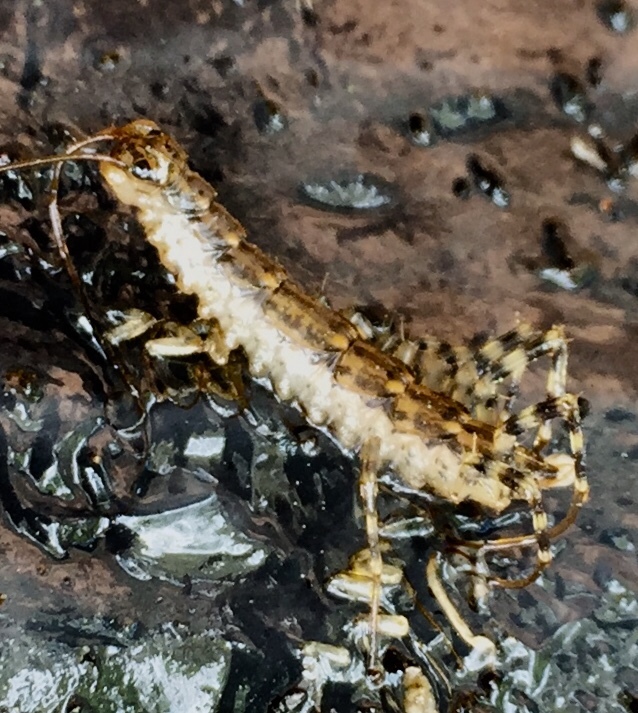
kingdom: Animalia
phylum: Arthropoda
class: Chilopoda
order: Scutigeromorpha
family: Scutigeridae
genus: Scutigera
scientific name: Scutigera coleoptrata
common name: House centipede
